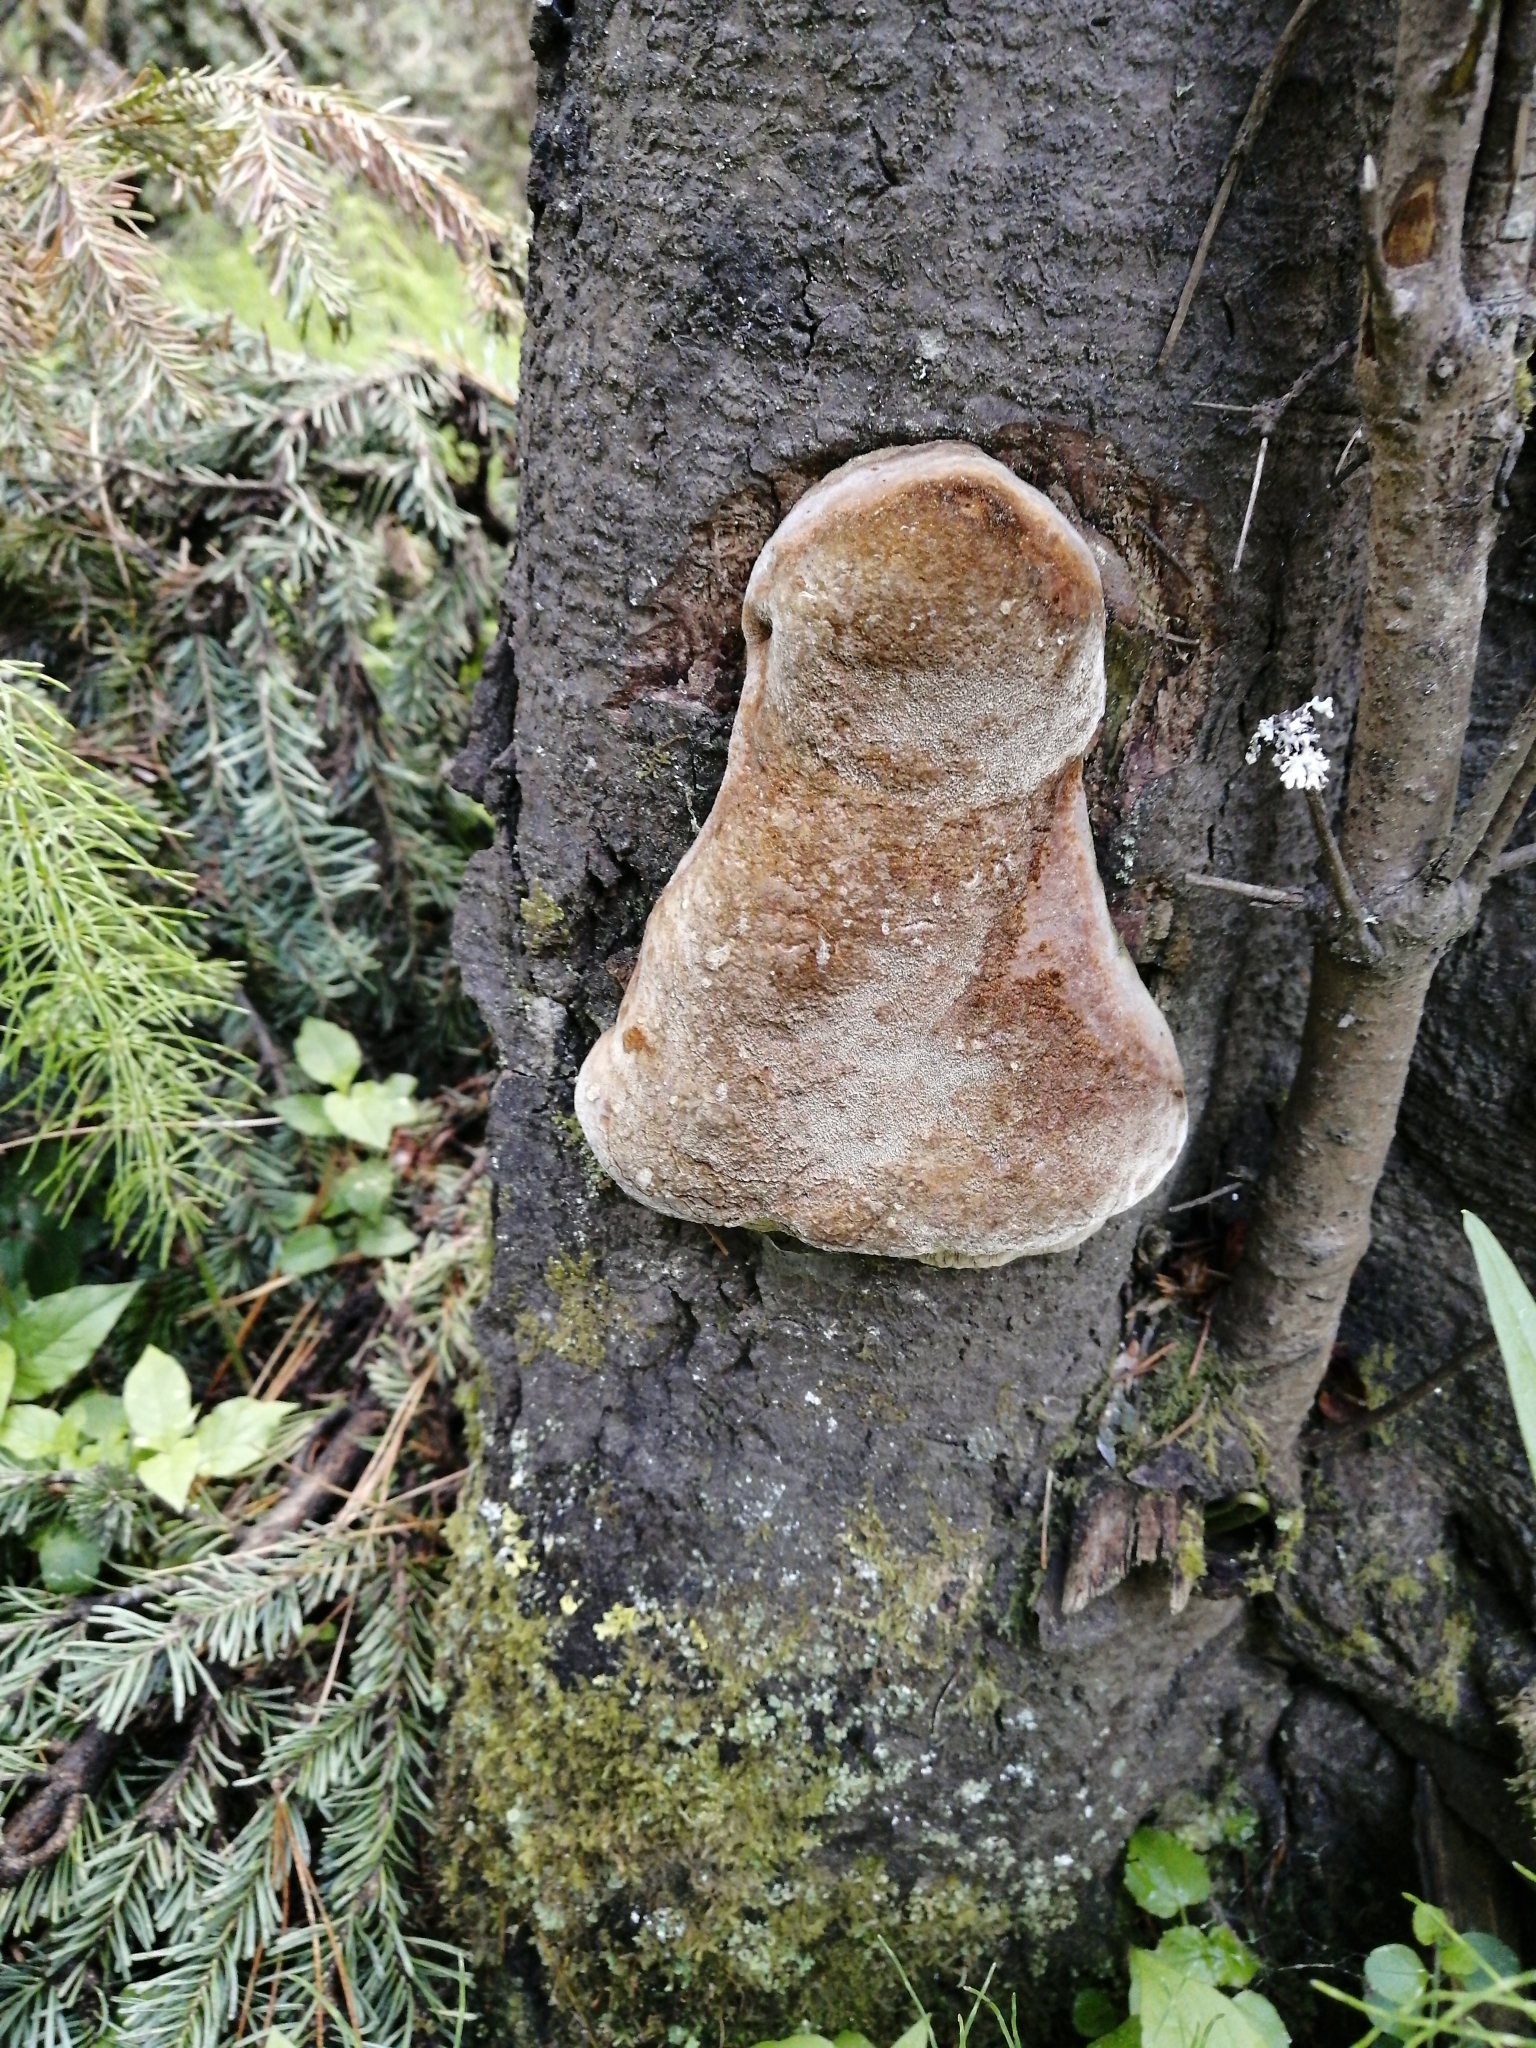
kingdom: Fungi
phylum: Basidiomycota
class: Agaricomycetes
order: Hymenochaetales
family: Hymenochaetaceae
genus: Phellinus
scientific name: Phellinus hartigii
